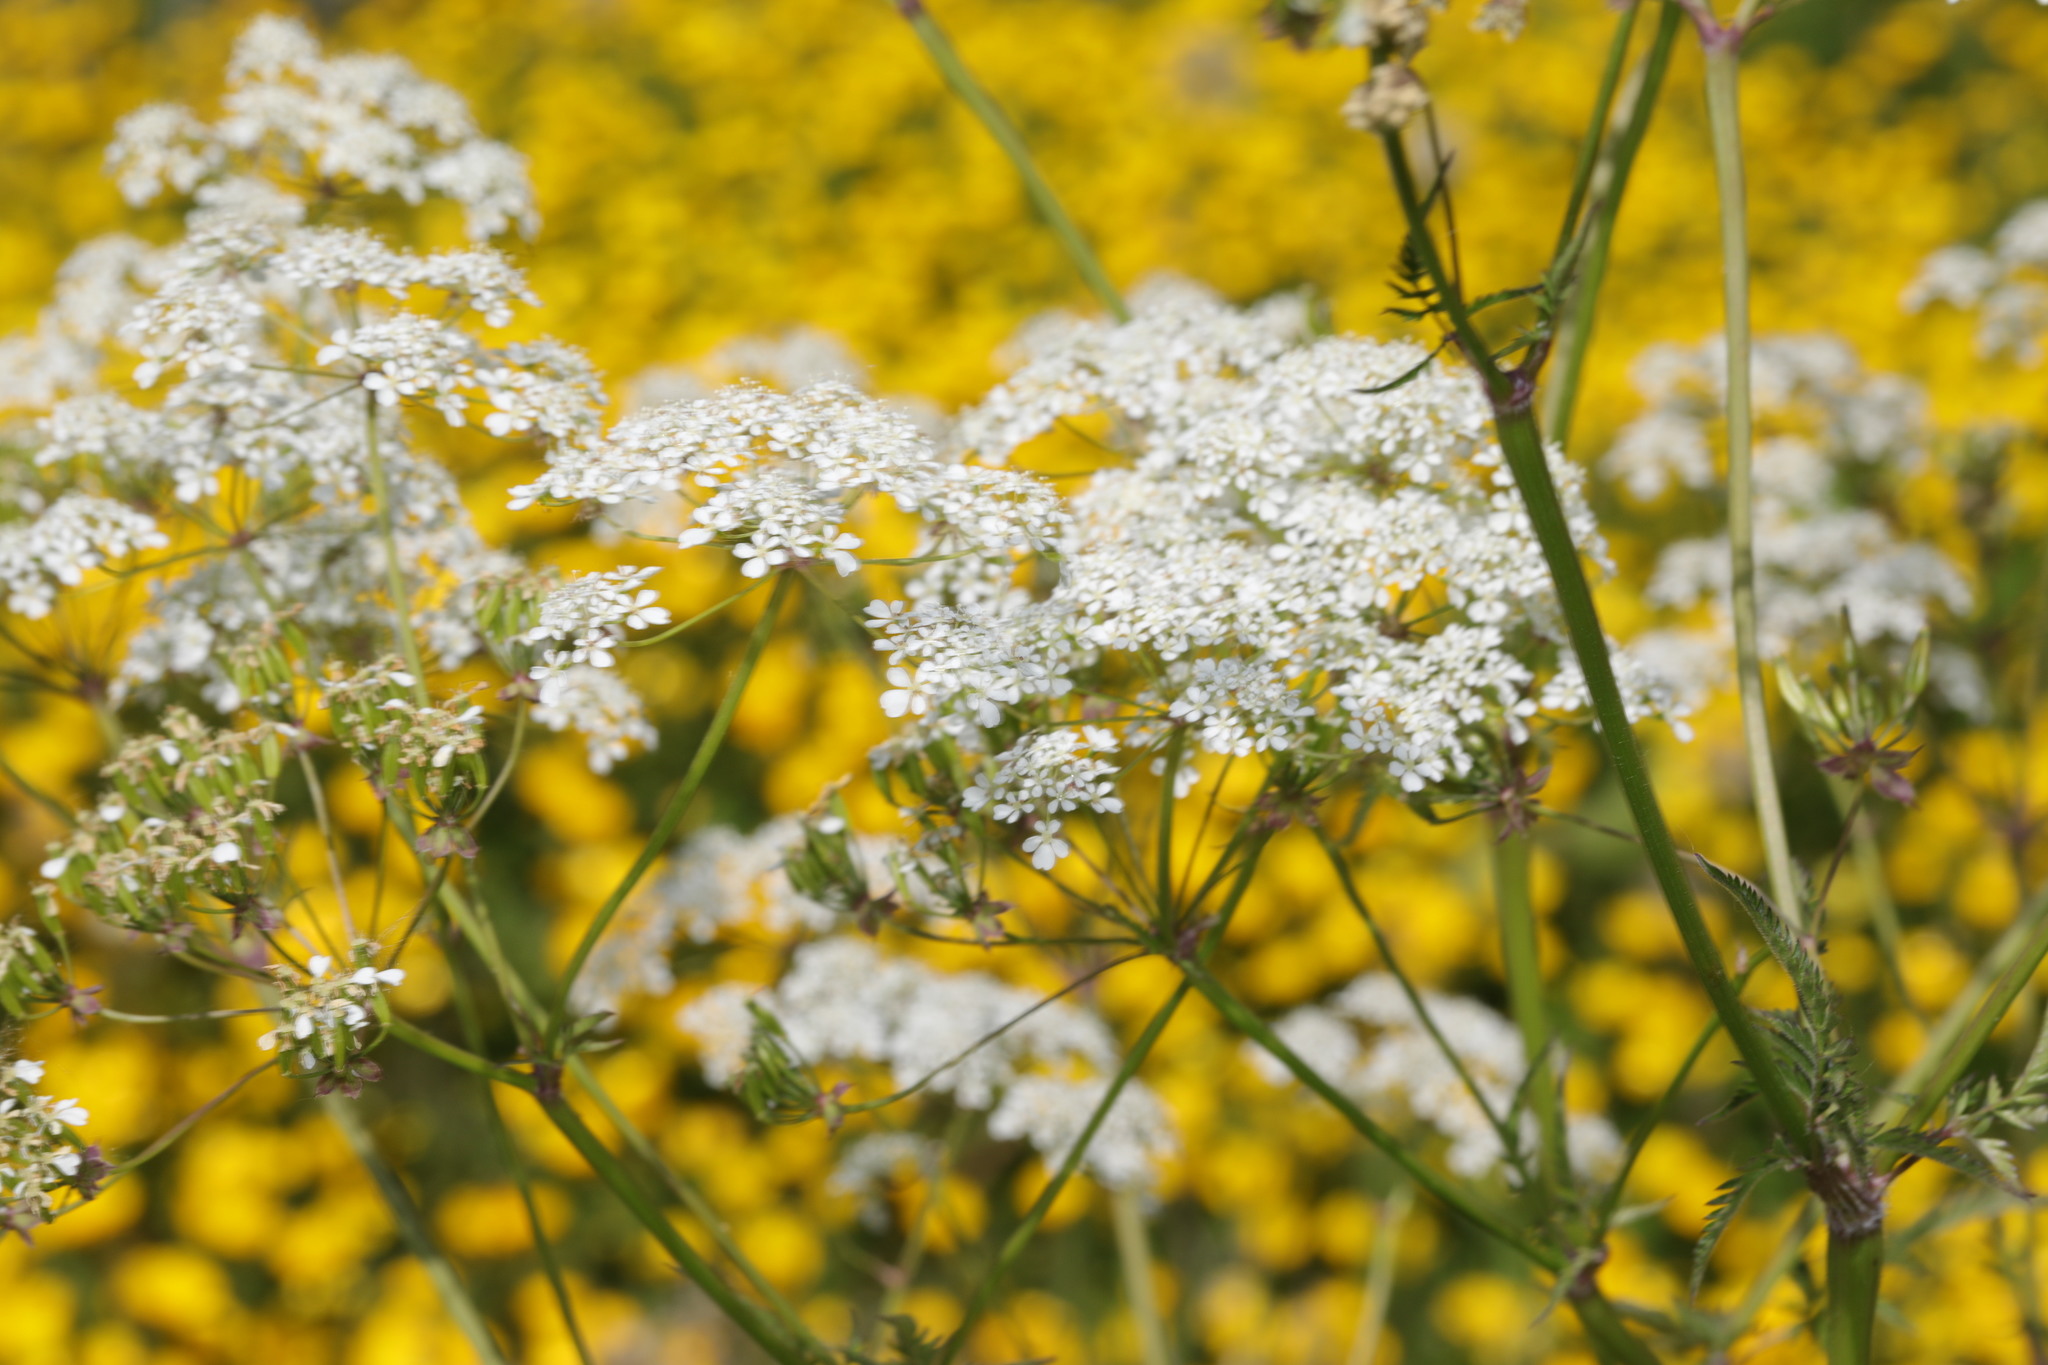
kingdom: Plantae
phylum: Tracheophyta
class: Magnoliopsida
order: Apiales
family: Apiaceae
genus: Anthriscus
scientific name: Anthriscus sylvestris
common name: Cow parsley
